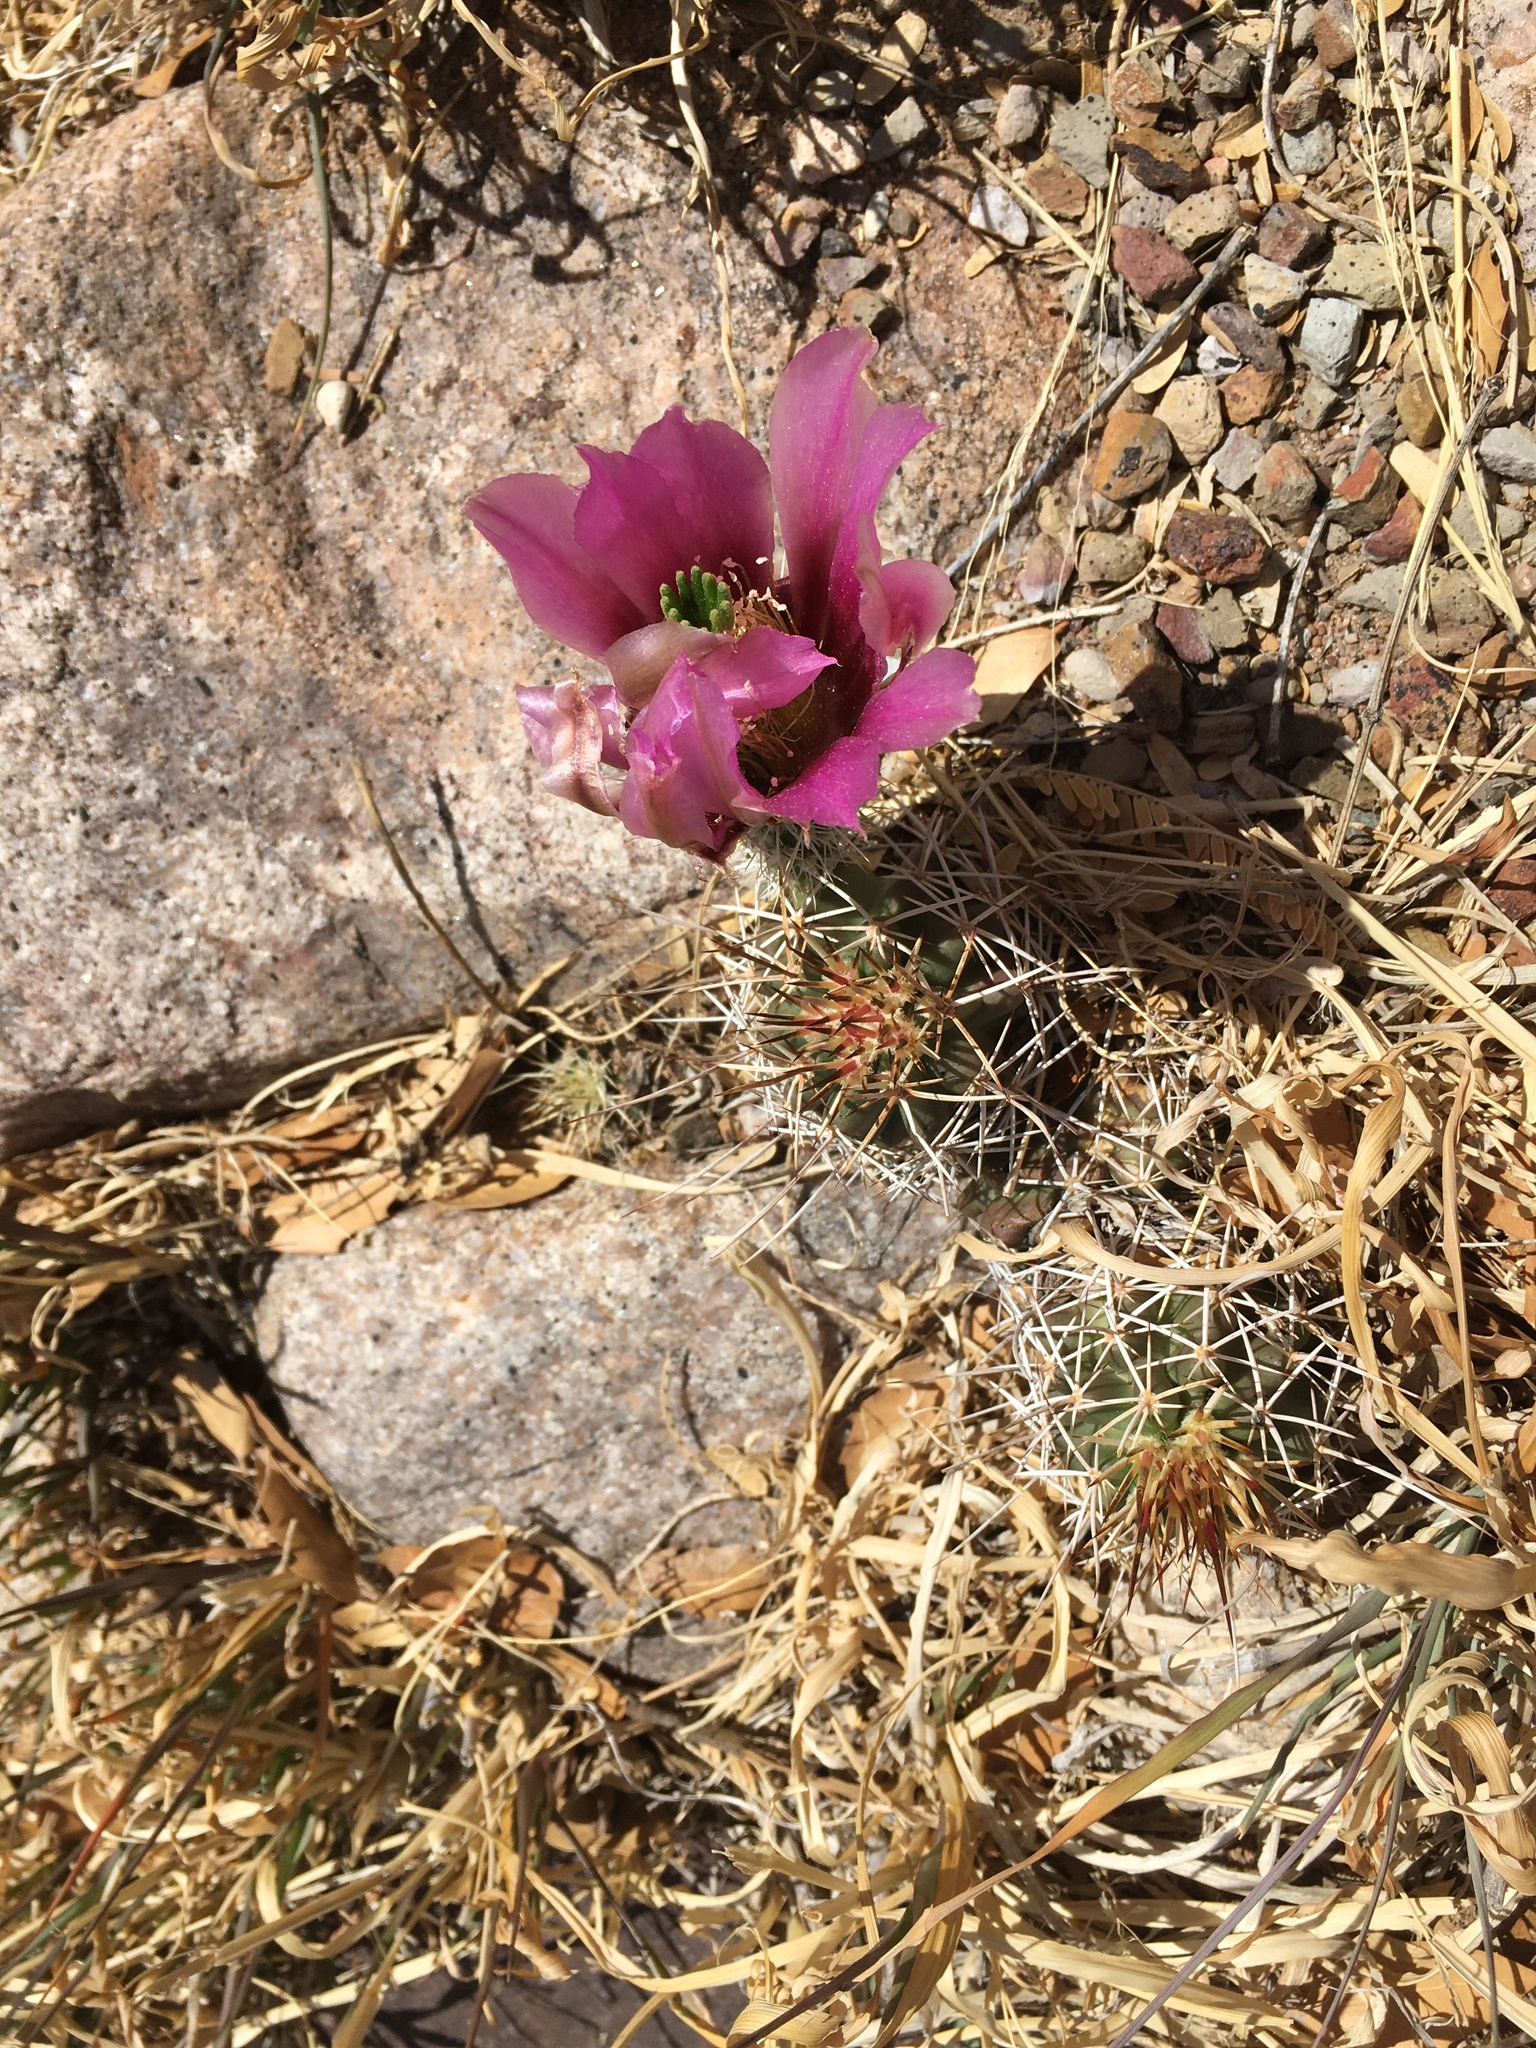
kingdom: Plantae
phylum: Tracheophyta
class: Magnoliopsida
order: Caryophyllales
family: Cactaceae
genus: Echinocereus
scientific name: Echinocereus fendleri
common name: Fendler's hedgehog cactus
